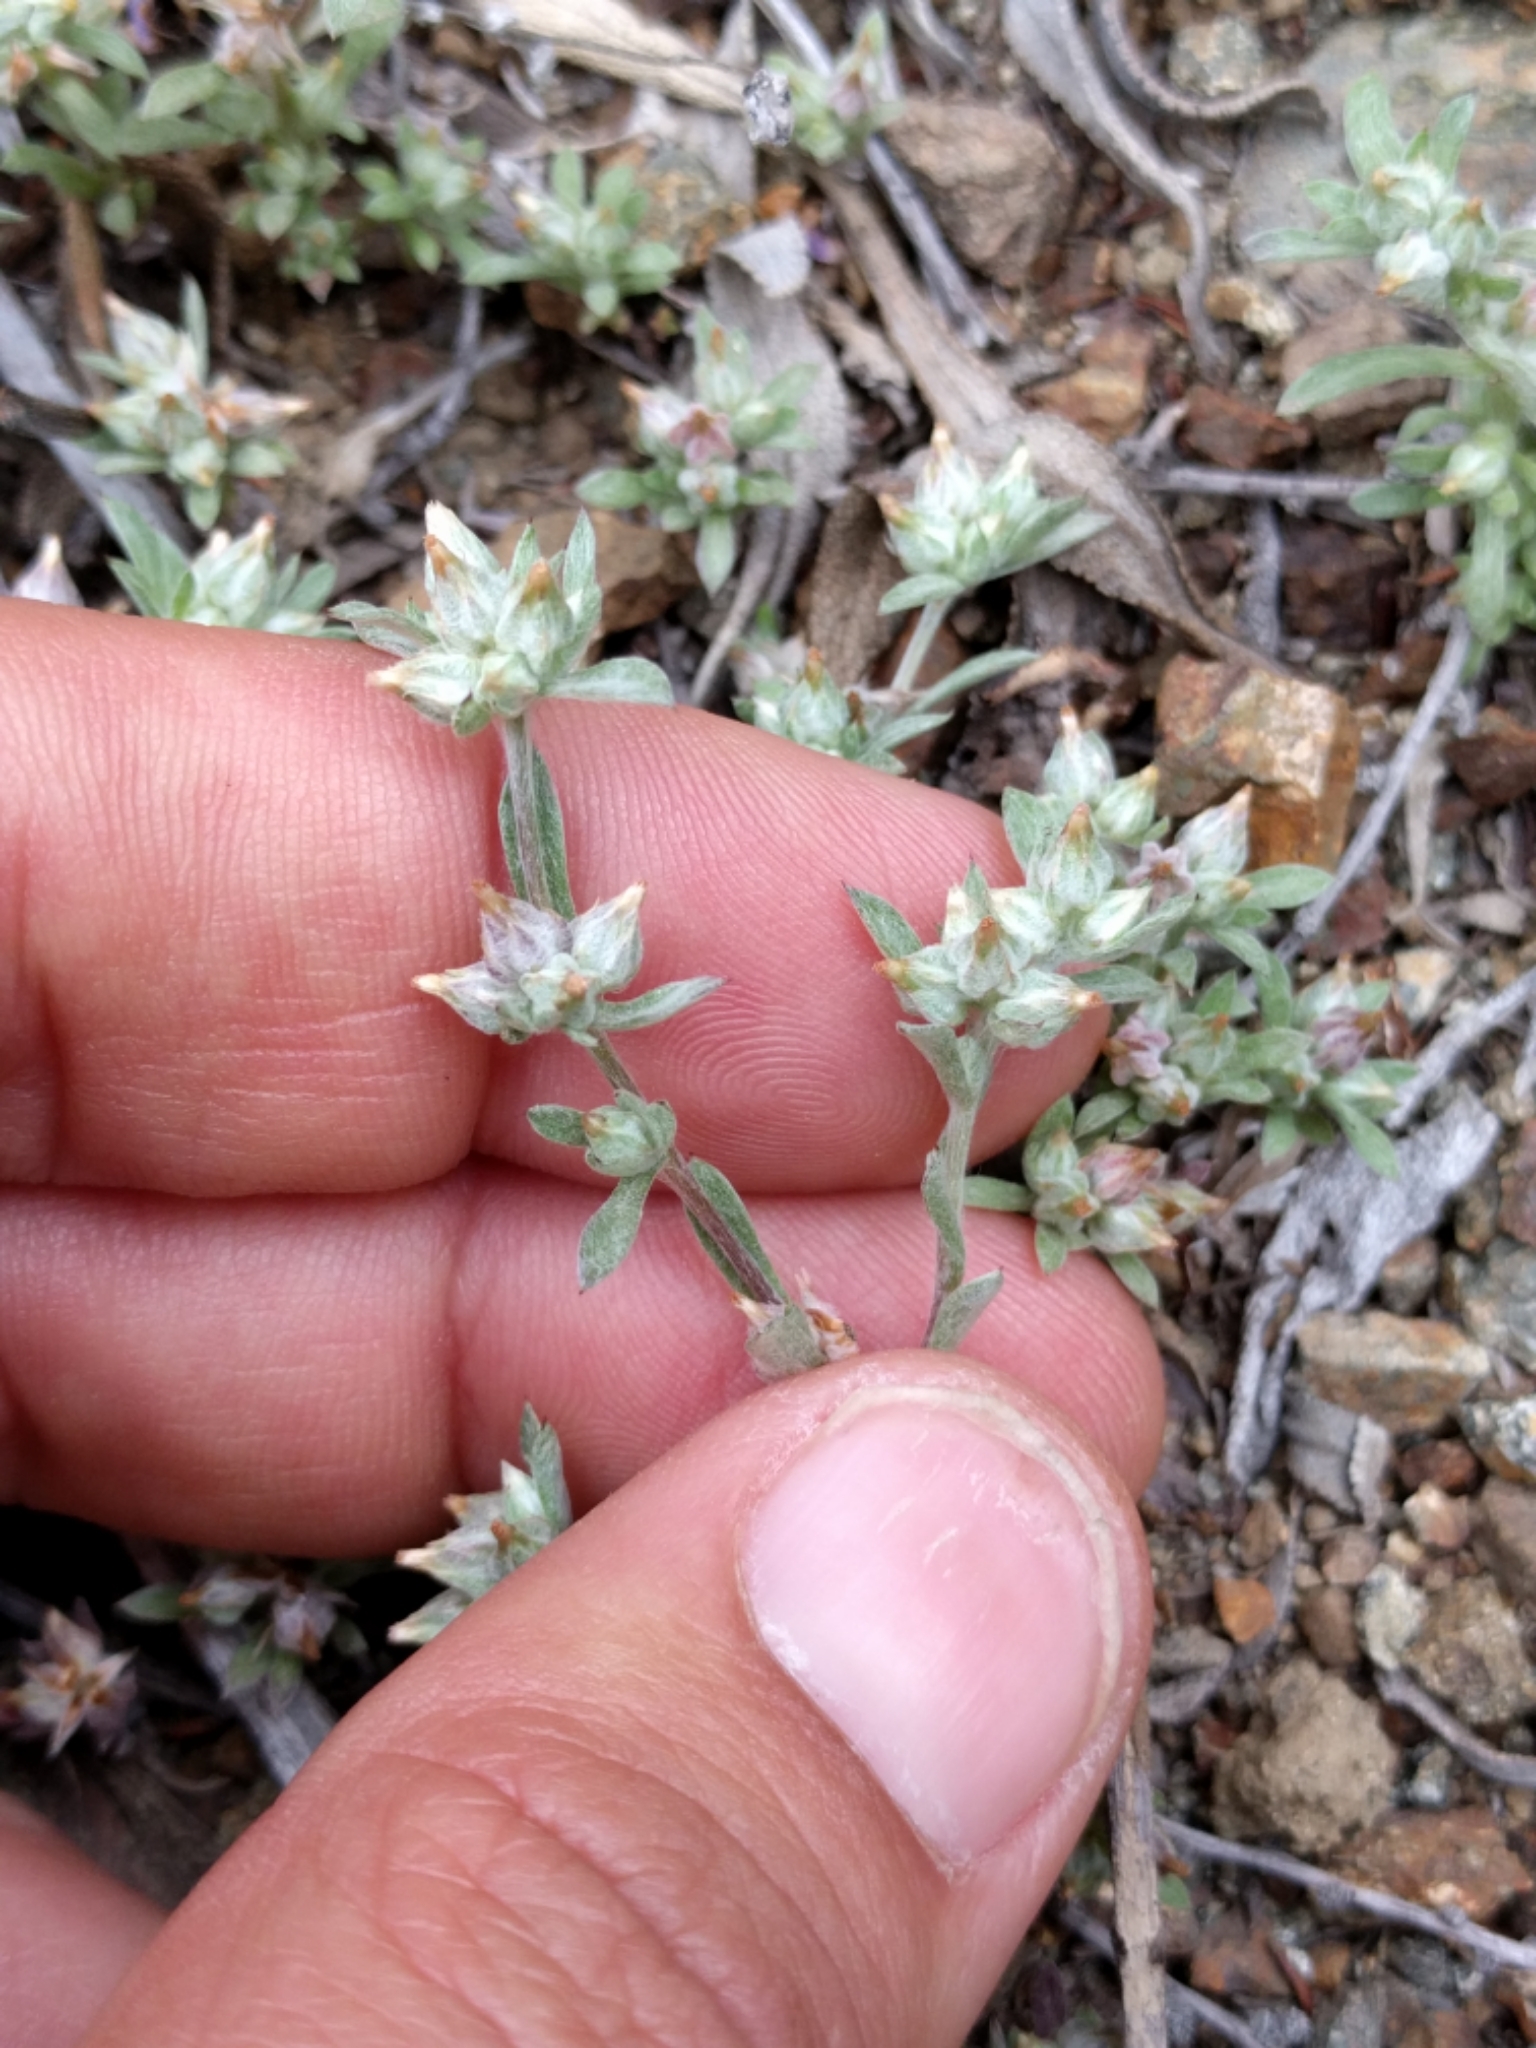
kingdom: Plantae
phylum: Tracheophyta
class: Magnoliopsida
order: Asterales
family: Asteraceae
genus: Logfia
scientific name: Logfia californica
